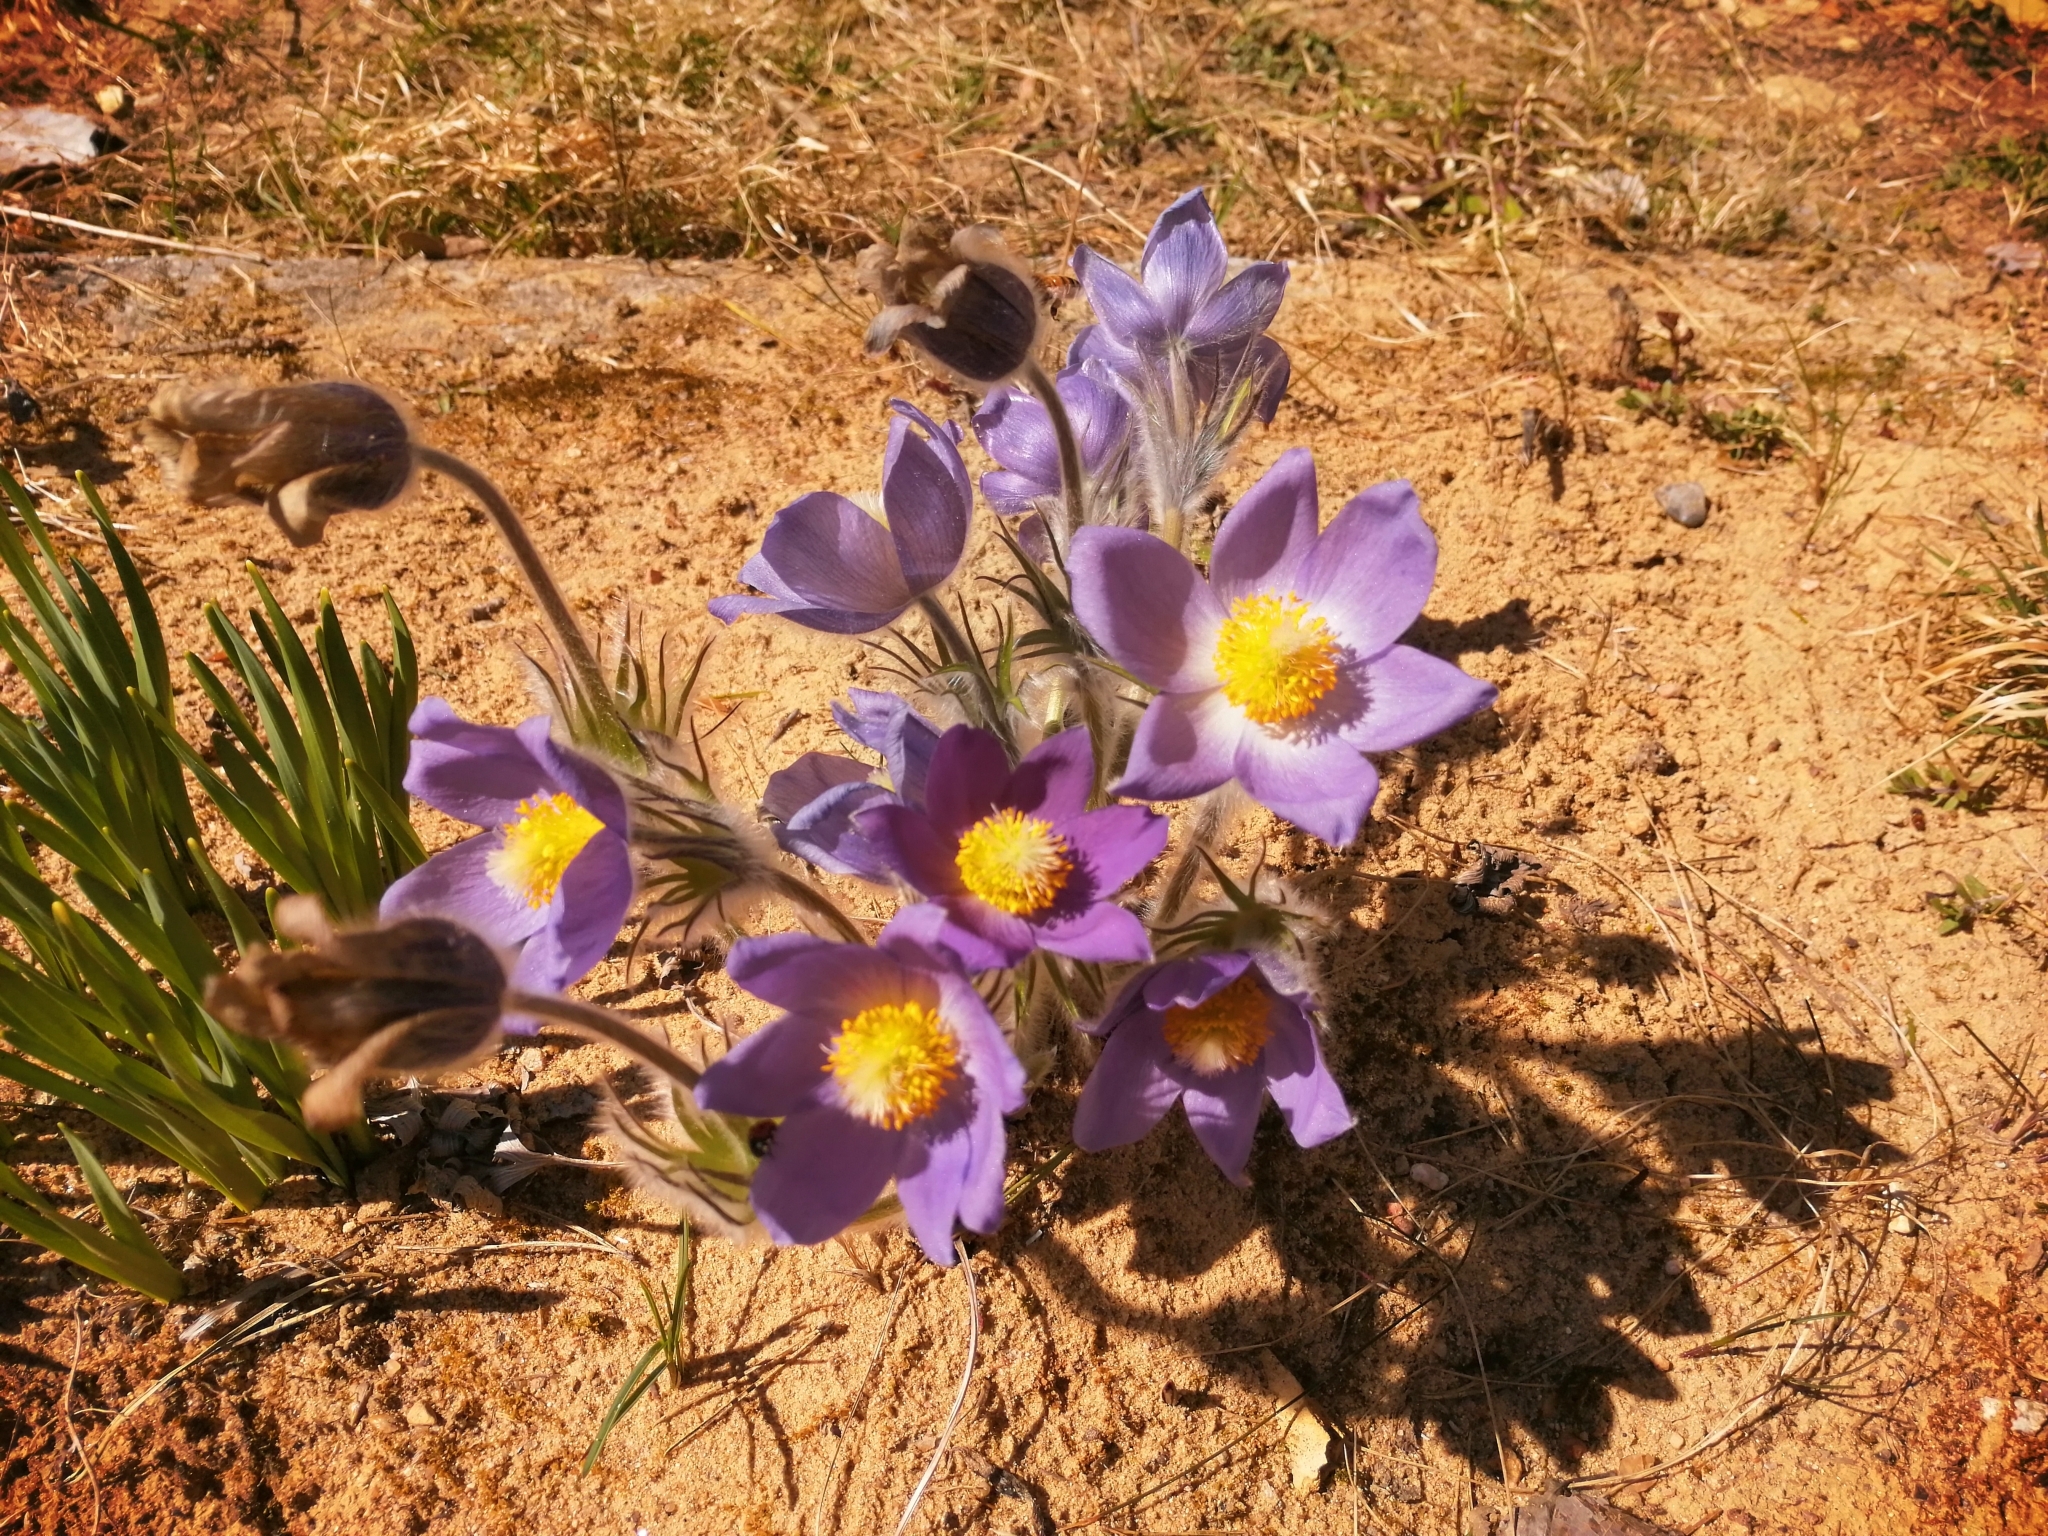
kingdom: Plantae
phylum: Tracheophyta
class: Magnoliopsida
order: Ranunculales
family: Ranunculaceae
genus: Pulsatilla
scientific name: Pulsatilla patens
